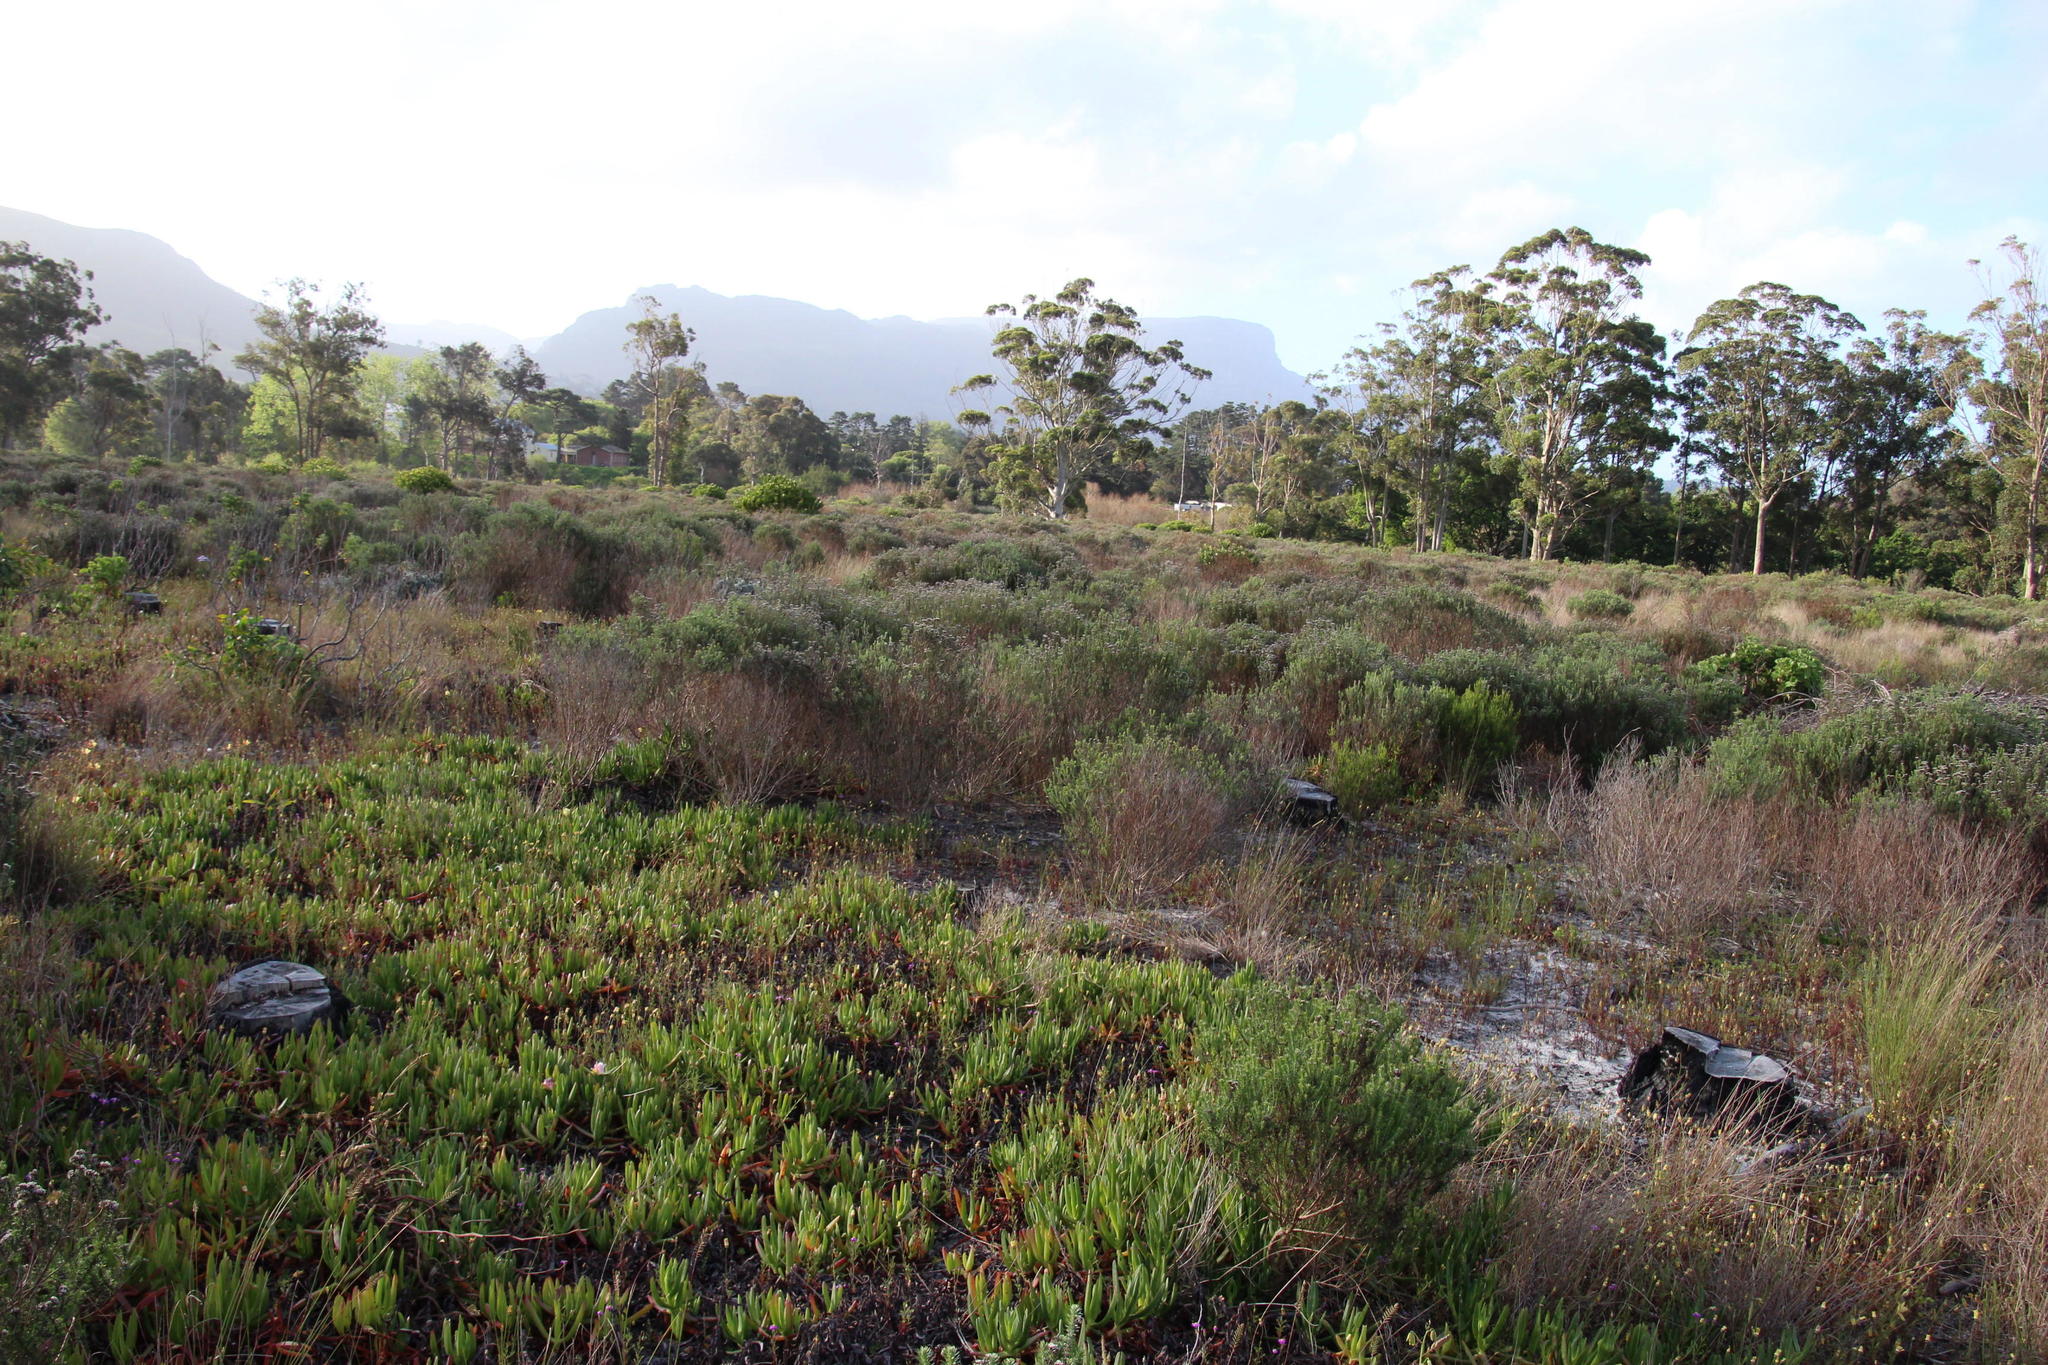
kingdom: Plantae
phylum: Tracheophyta
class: Magnoliopsida
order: Caryophyllales
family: Aizoaceae
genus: Carpobrotus
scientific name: Carpobrotus edulis
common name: Hottentot-fig
